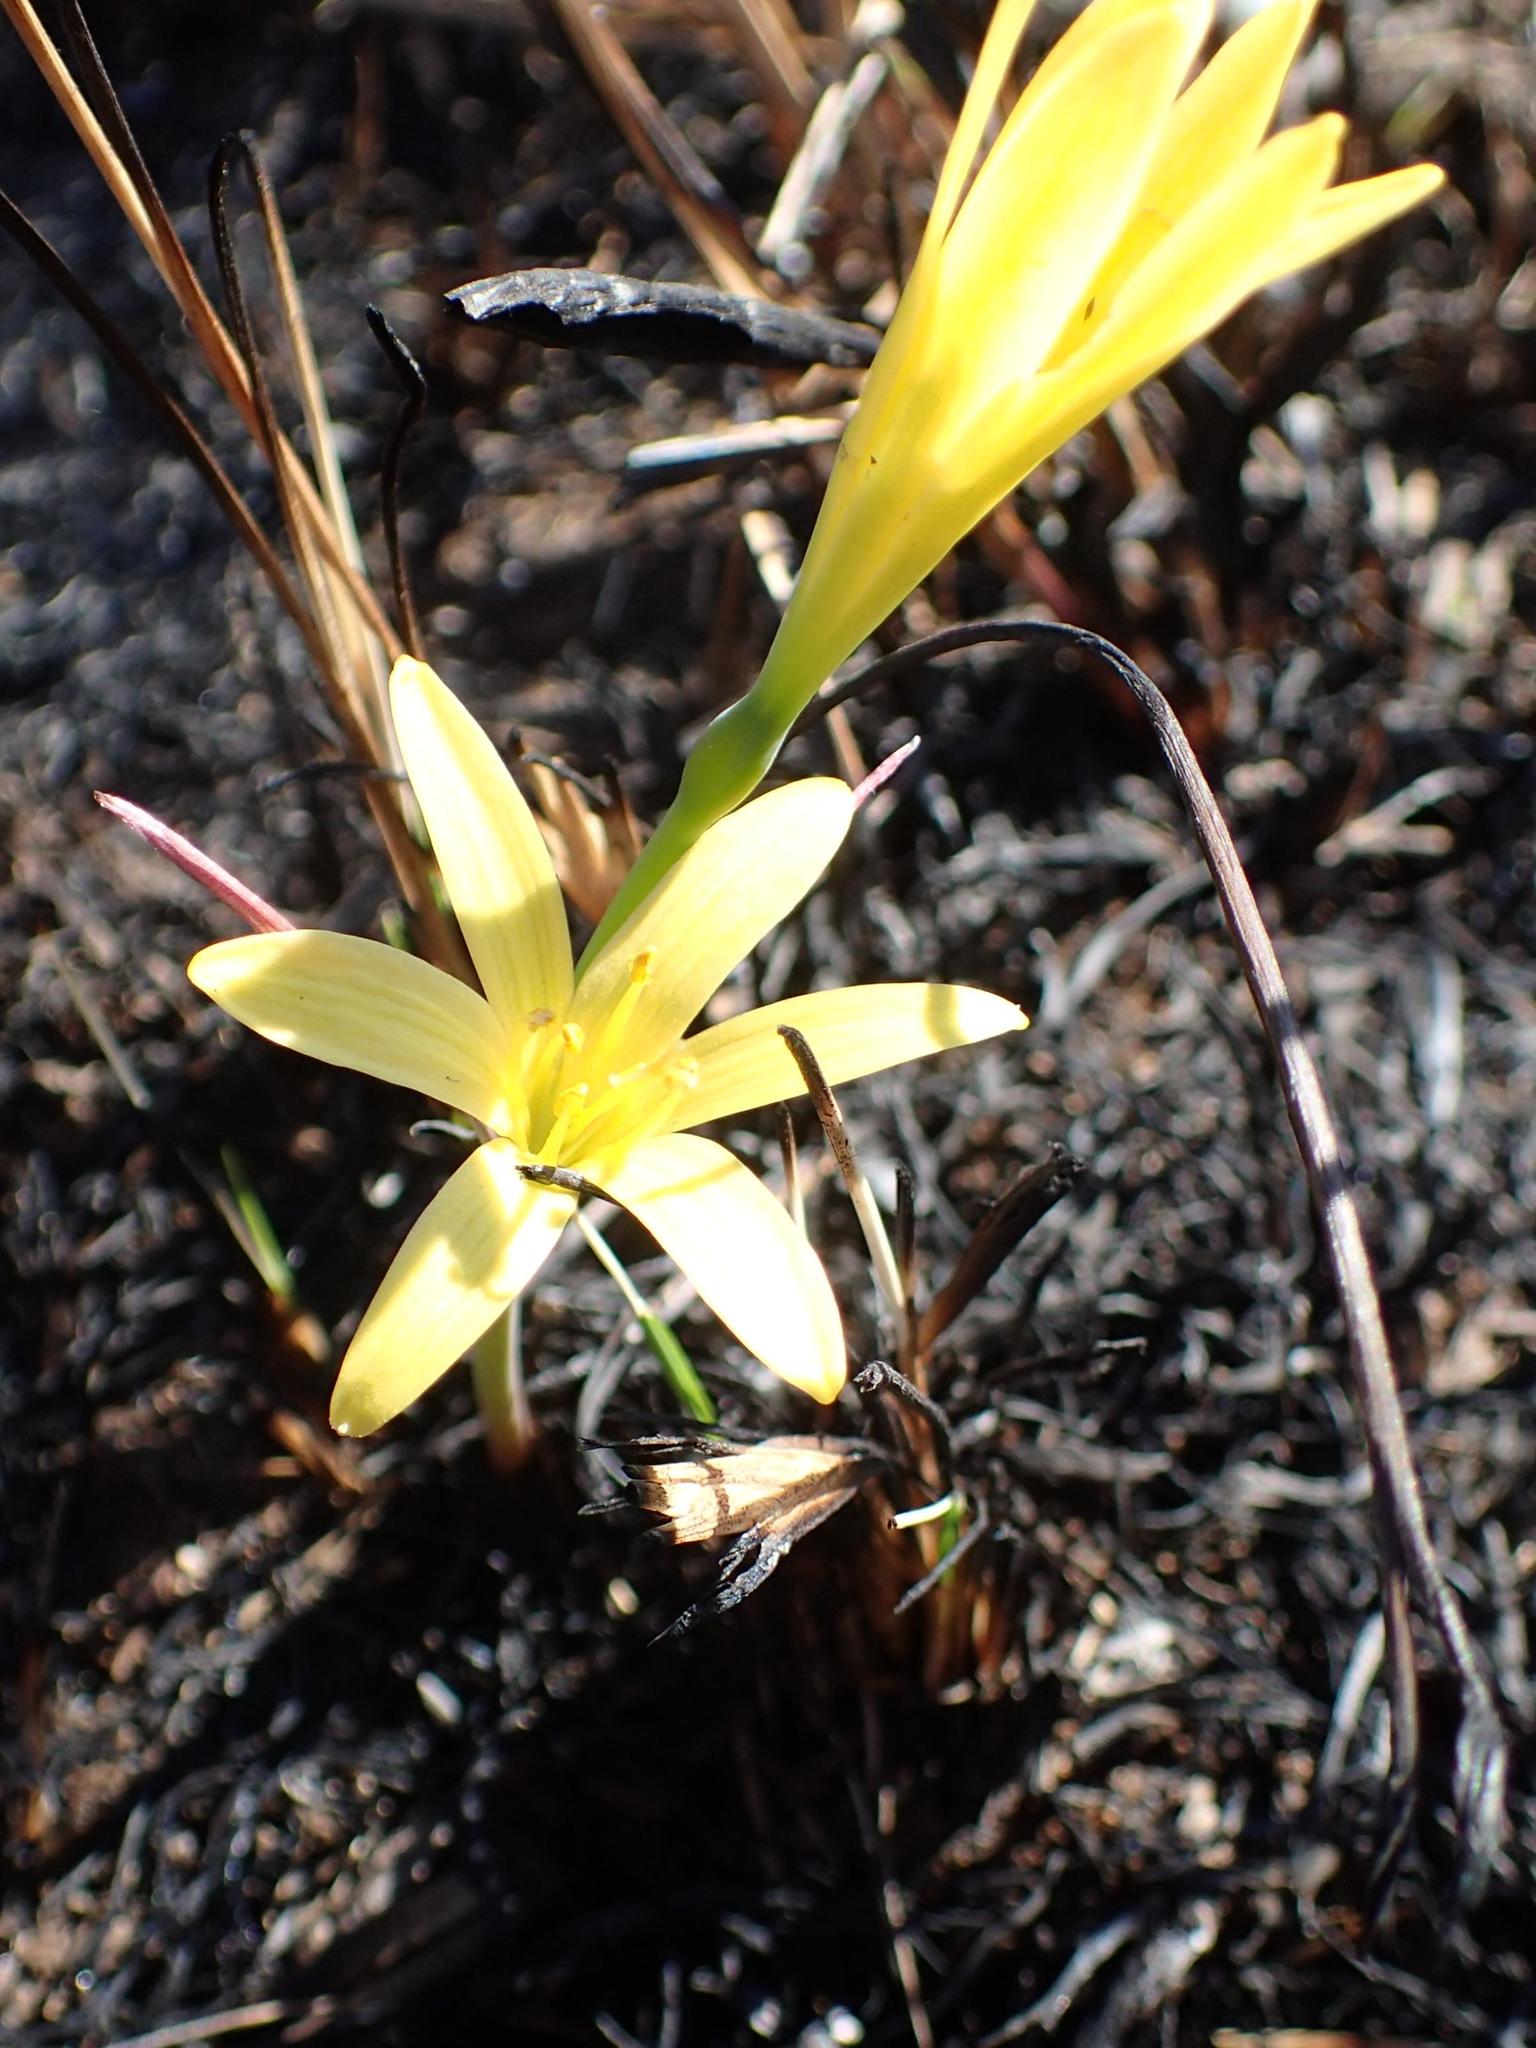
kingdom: Plantae
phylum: Tracheophyta
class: Liliopsida
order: Asparagales
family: Amaryllidaceae
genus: Cyrtanthus
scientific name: Cyrtanthus breviflorus
